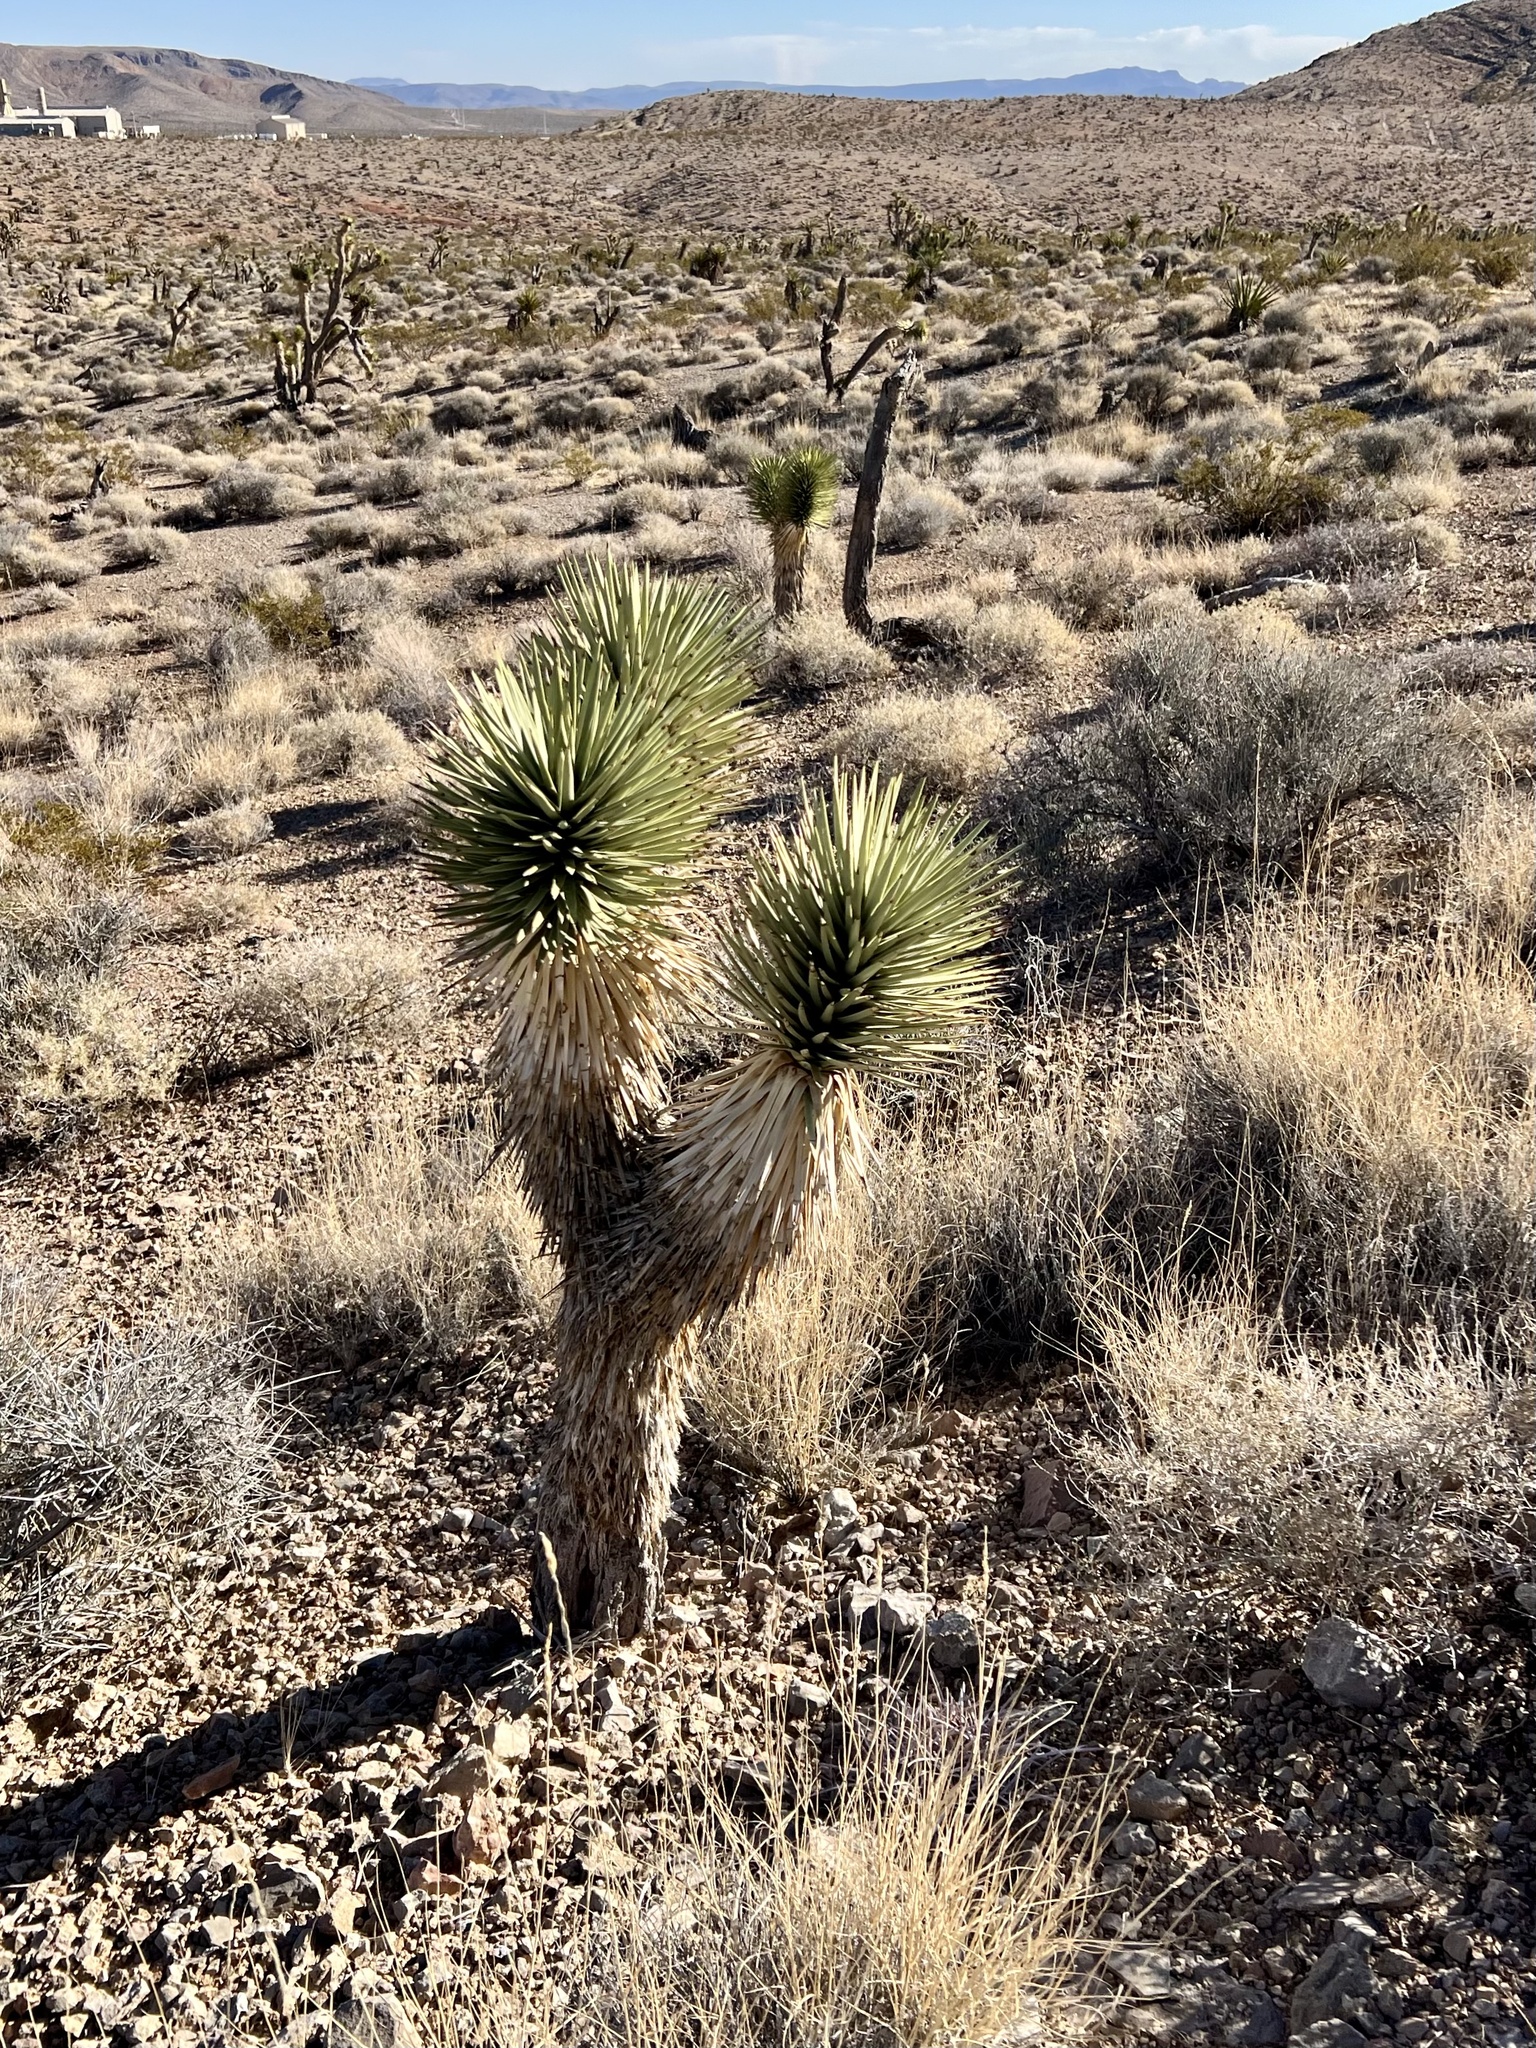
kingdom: Plantae
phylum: Tracheophyta
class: Liliopsida
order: Asparagales
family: Asparagaceae
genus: Yucca
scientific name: Yucca brevifolia
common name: Joshua tree
